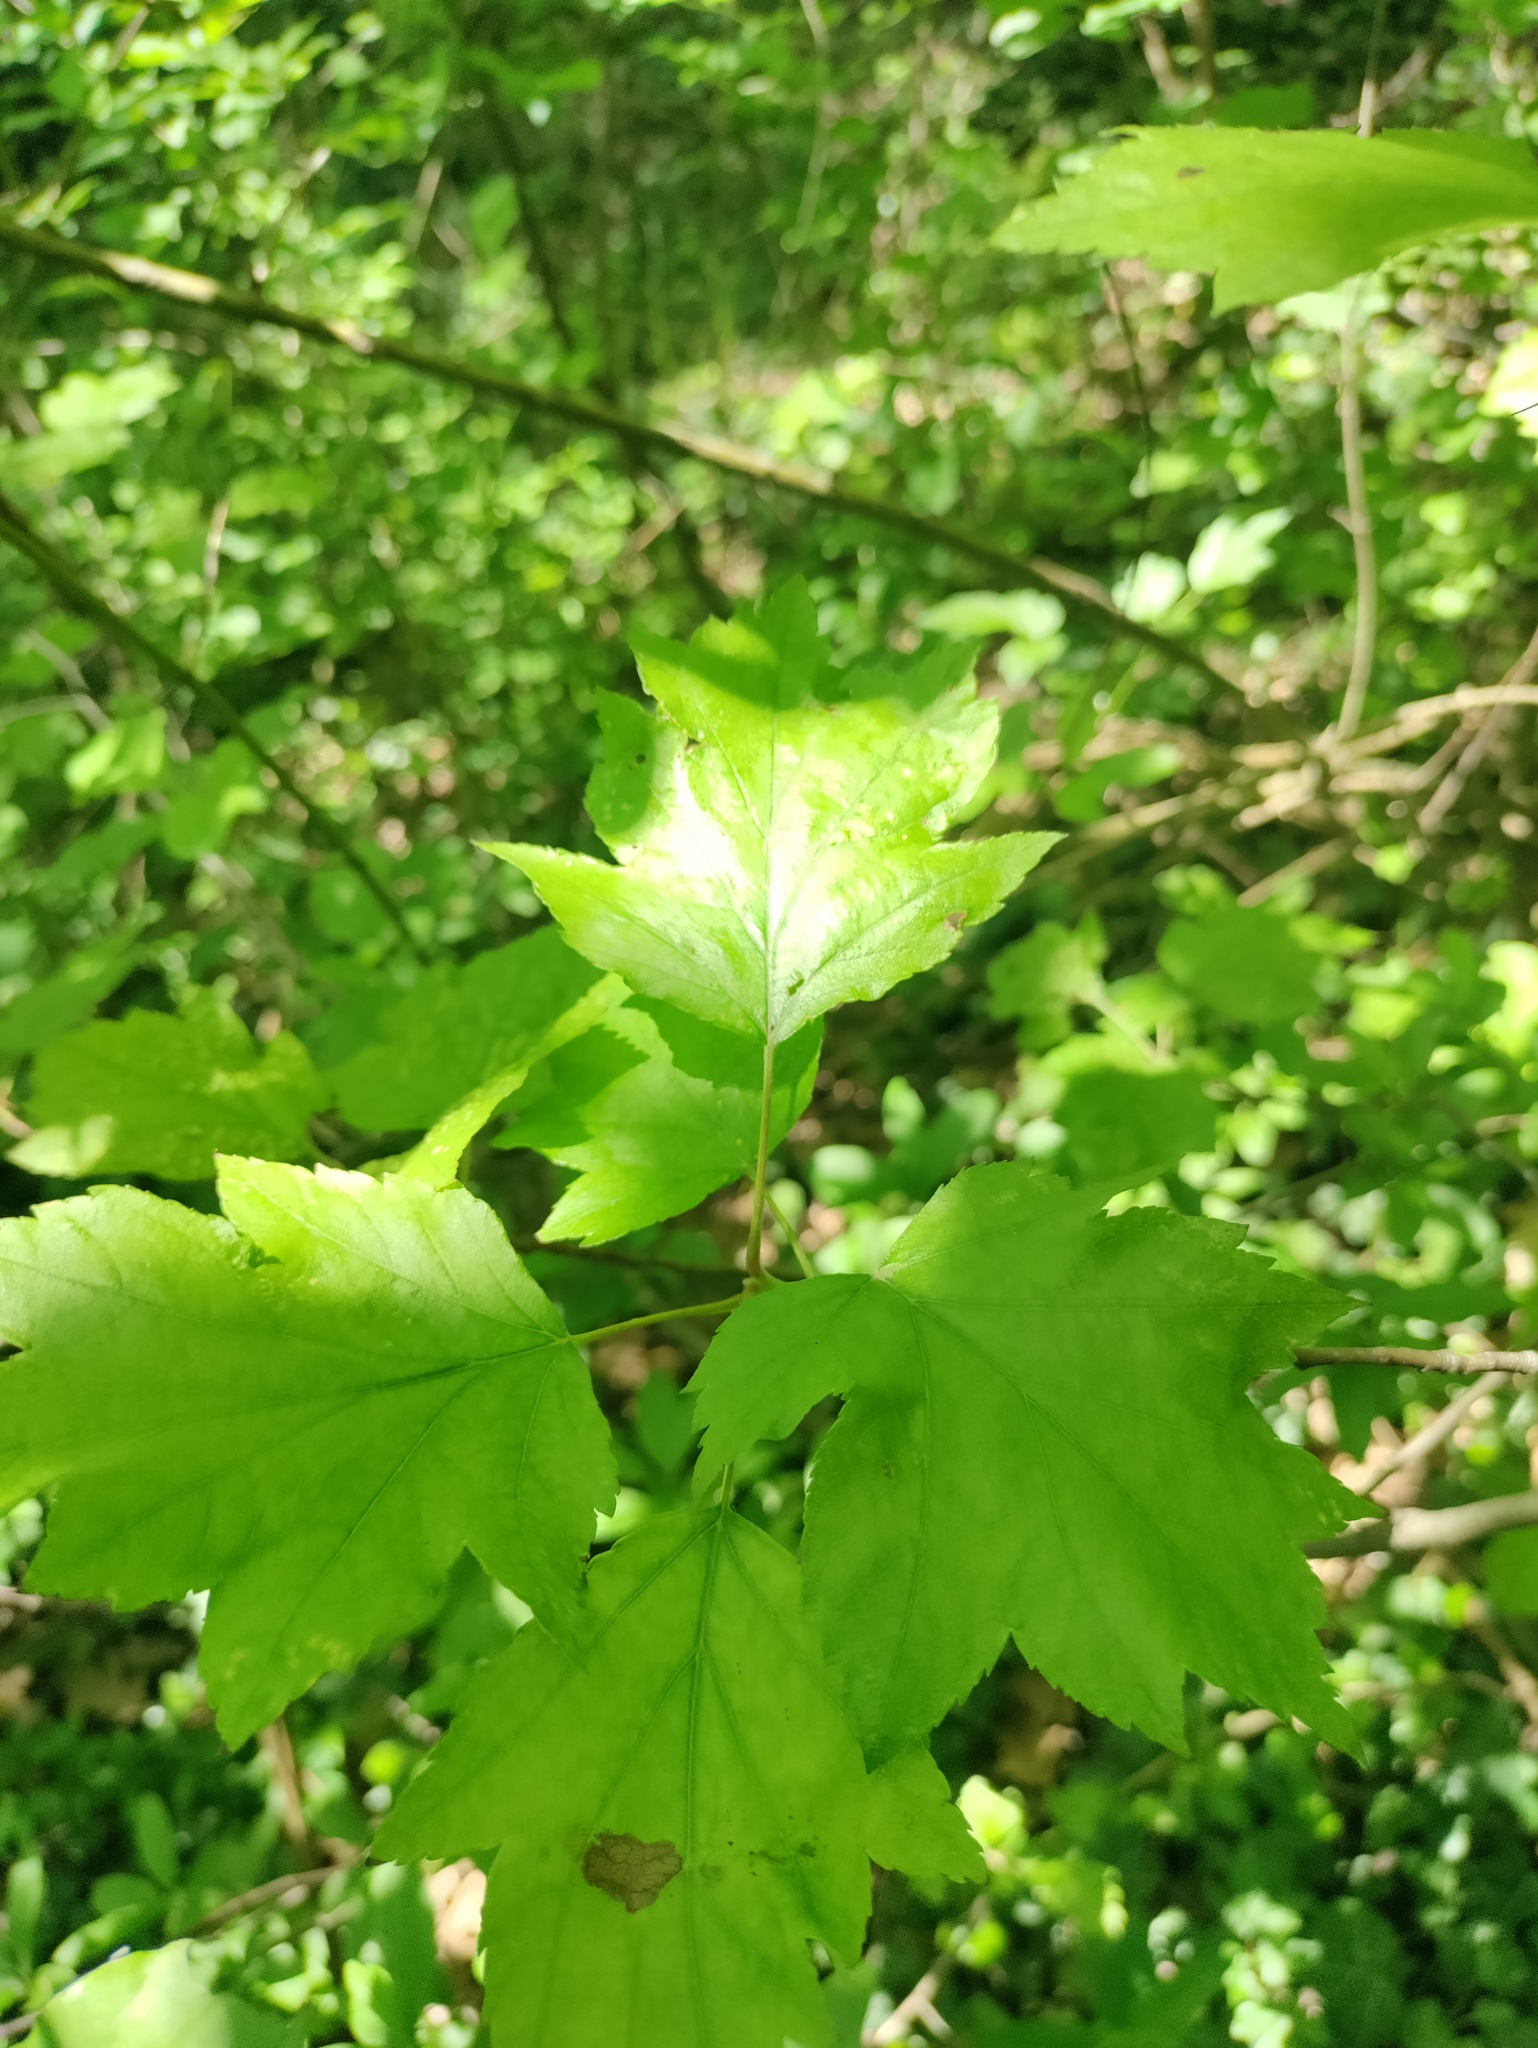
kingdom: Plantae
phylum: Tracheophyta
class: Magnoliopsida
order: Rosales
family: Rosaceae
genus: Torminalis
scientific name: Torminalis glaberrima
